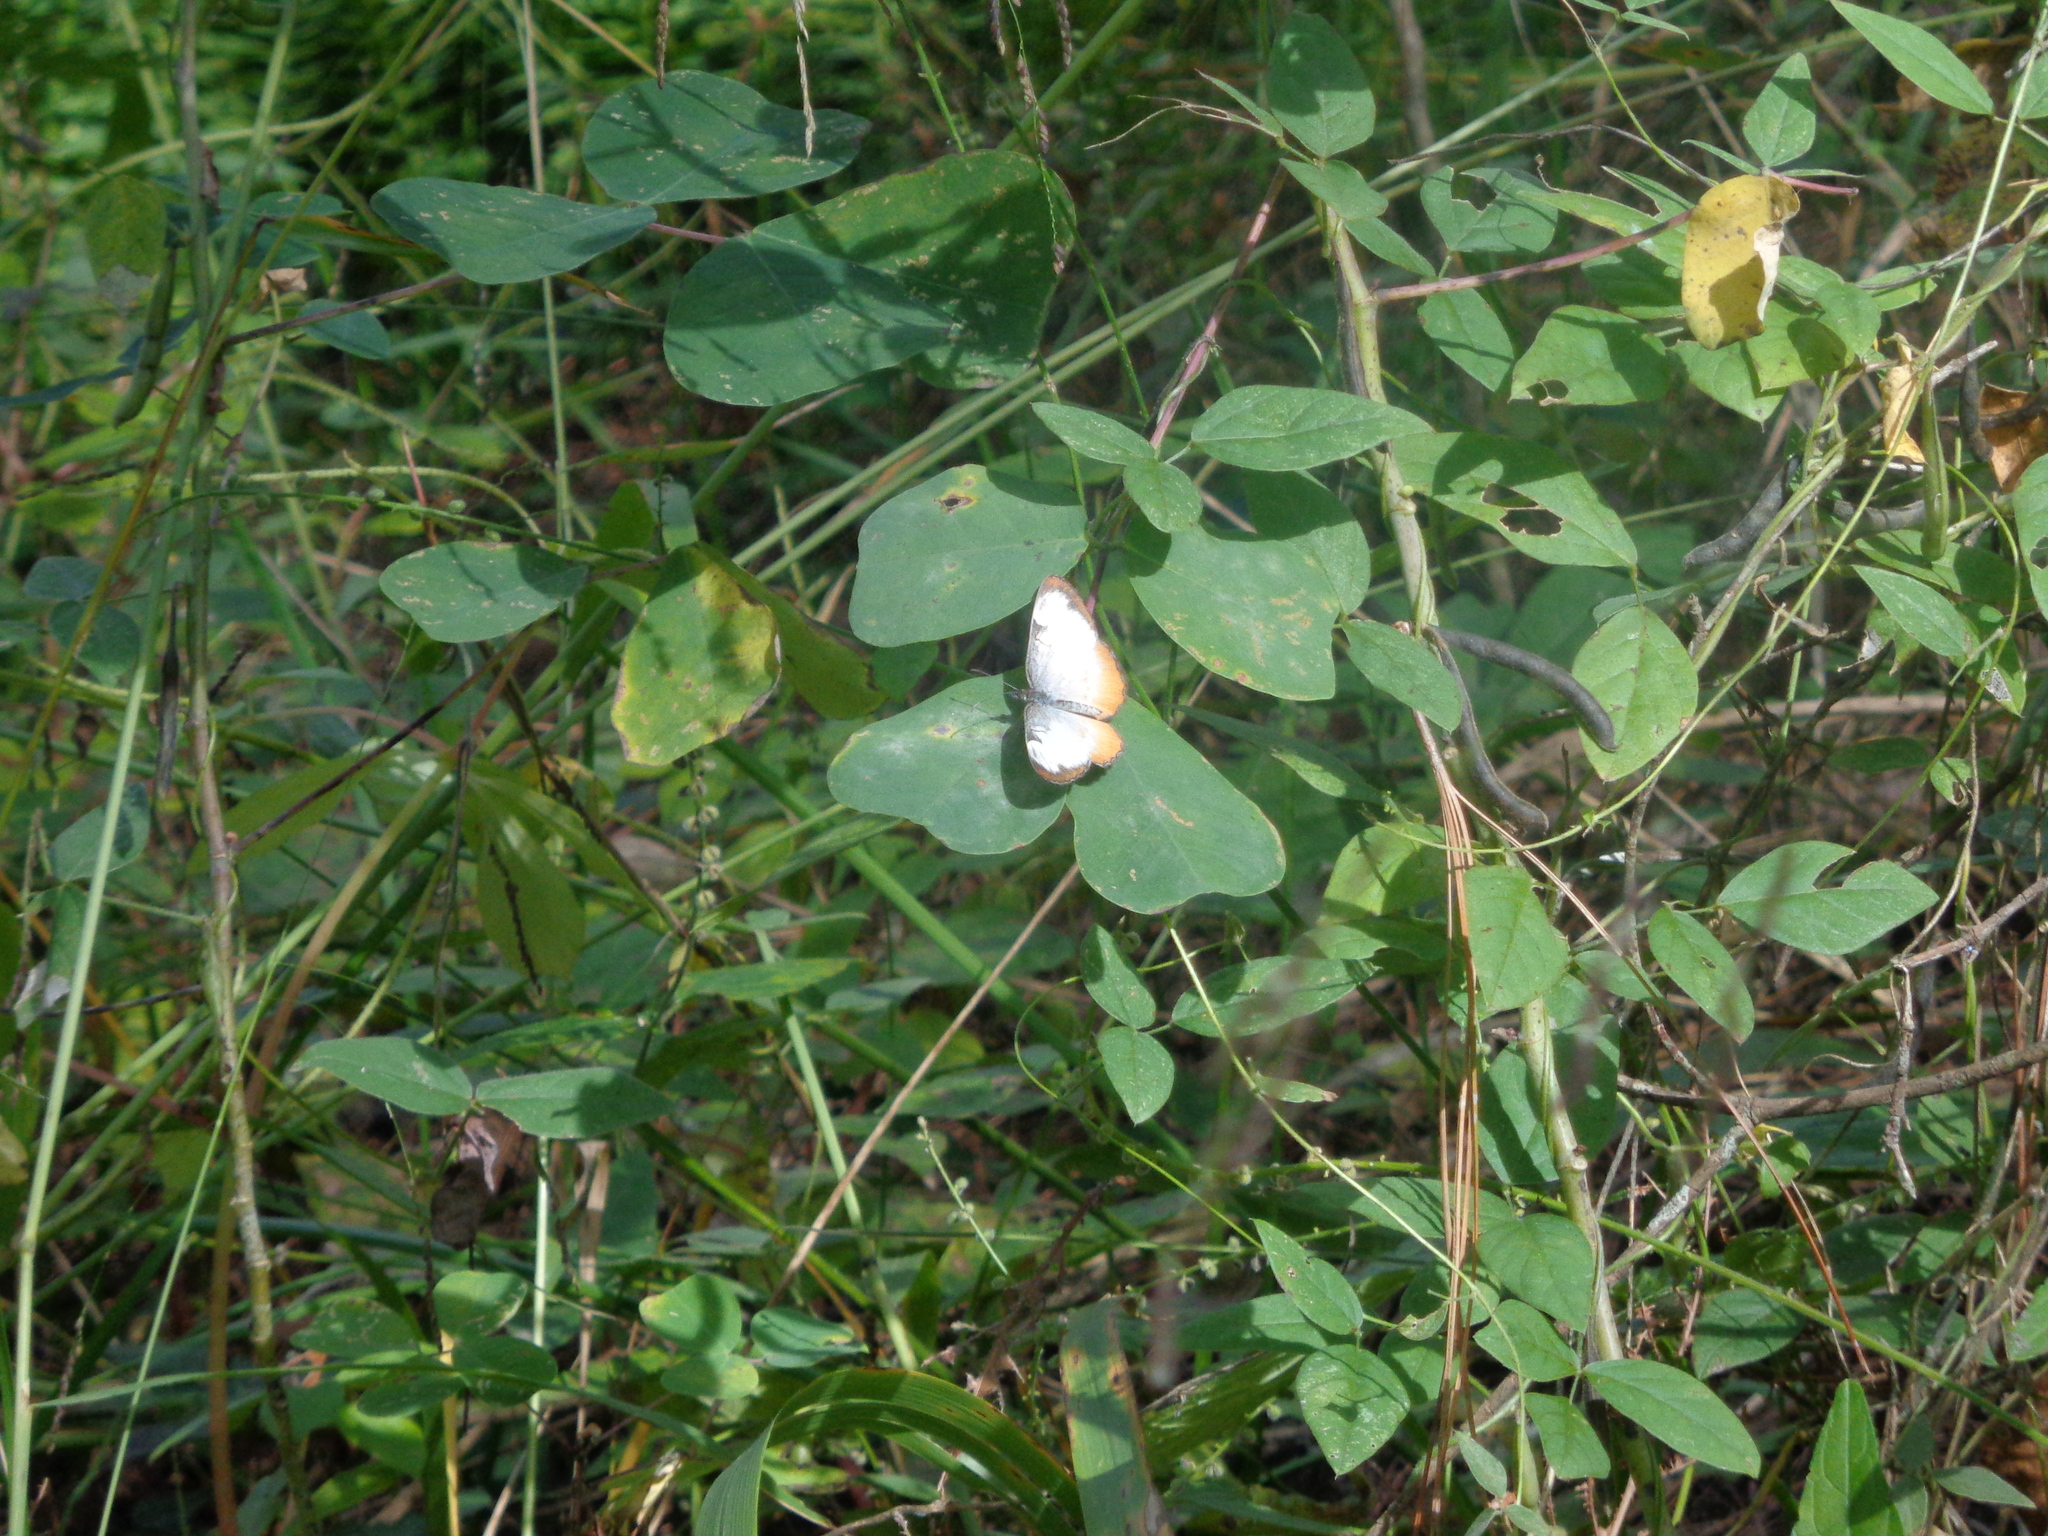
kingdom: Animalia
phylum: Arthropoda
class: Insecta
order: Lepidoptera
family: Nymphalidae
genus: Mestra
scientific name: Mestra amymone
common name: Common mestra
